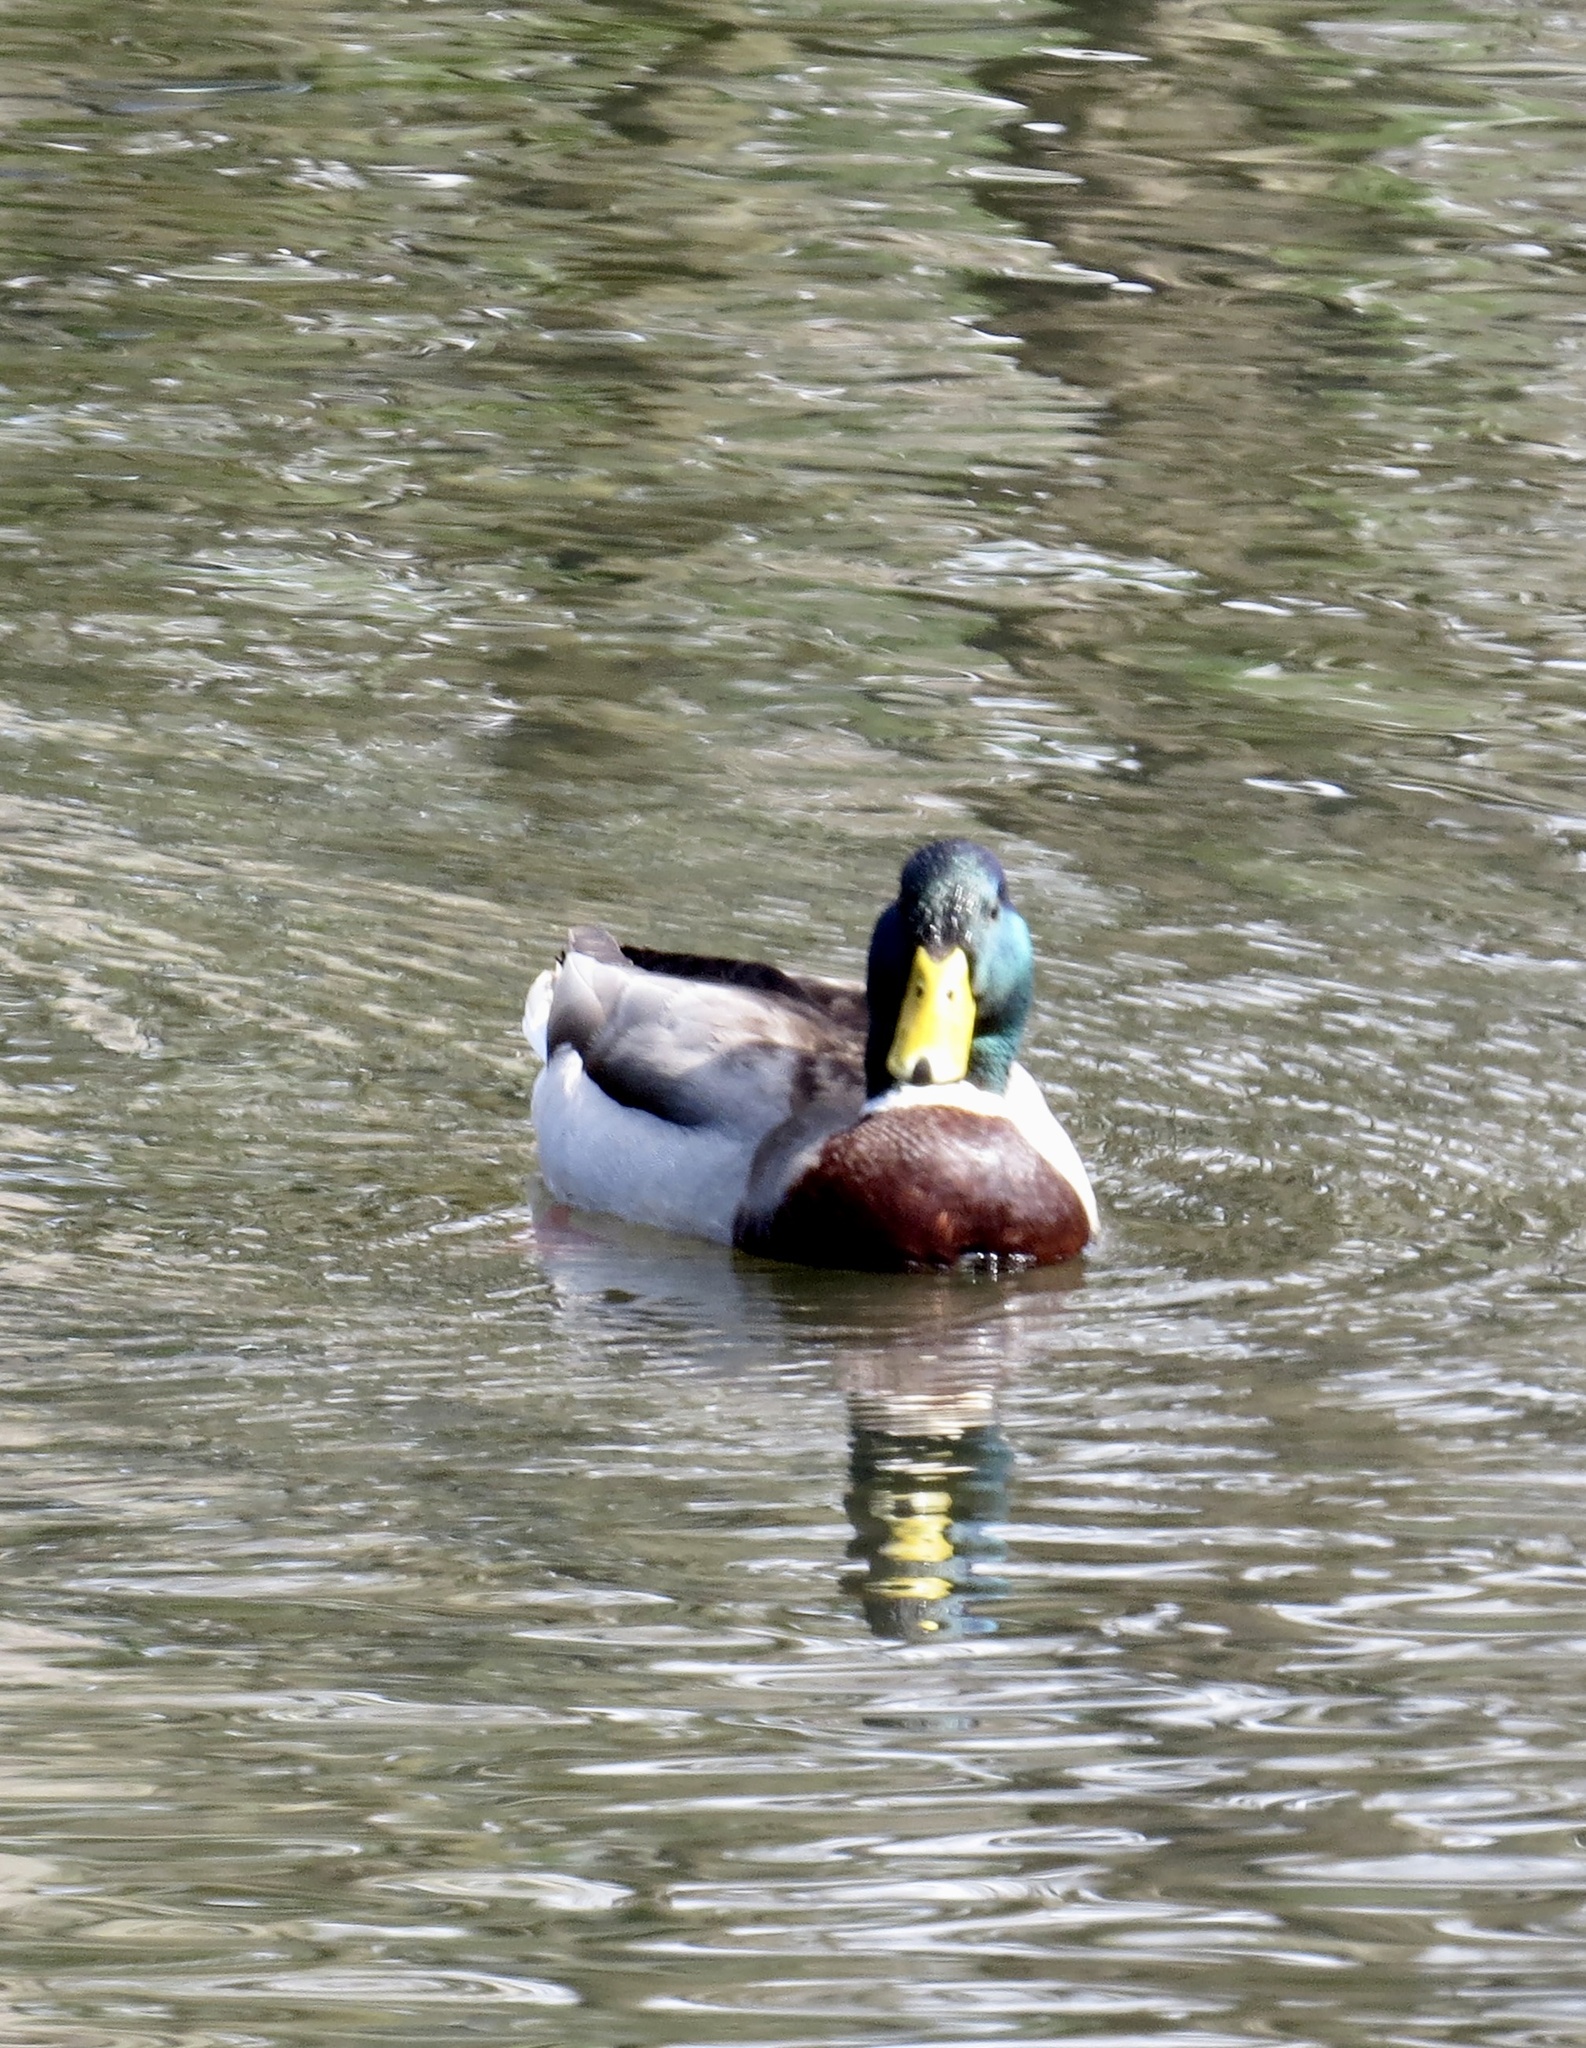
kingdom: Animalia
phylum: Chordata
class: Aves
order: Anseriformes
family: Anatidae
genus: Anas
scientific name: Anas platyrhynchos
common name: Mallard
